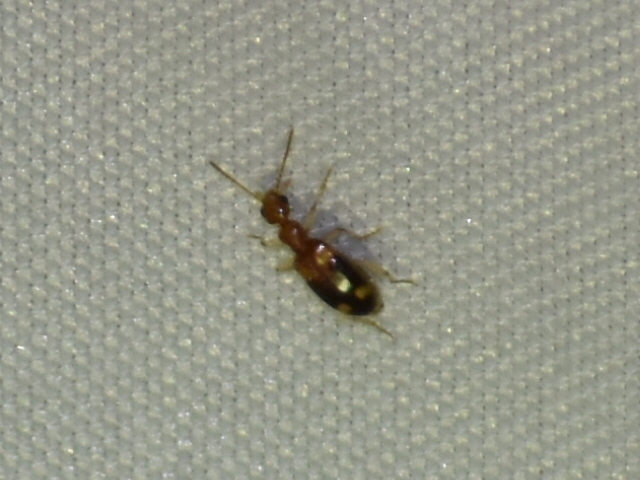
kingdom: Animalia
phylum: Arthropoda
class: Insecta
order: Coleoptera
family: Anthicidae
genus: Stricticollis
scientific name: Stricticollis tobias
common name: Two-dotted ant-like flower beetle
